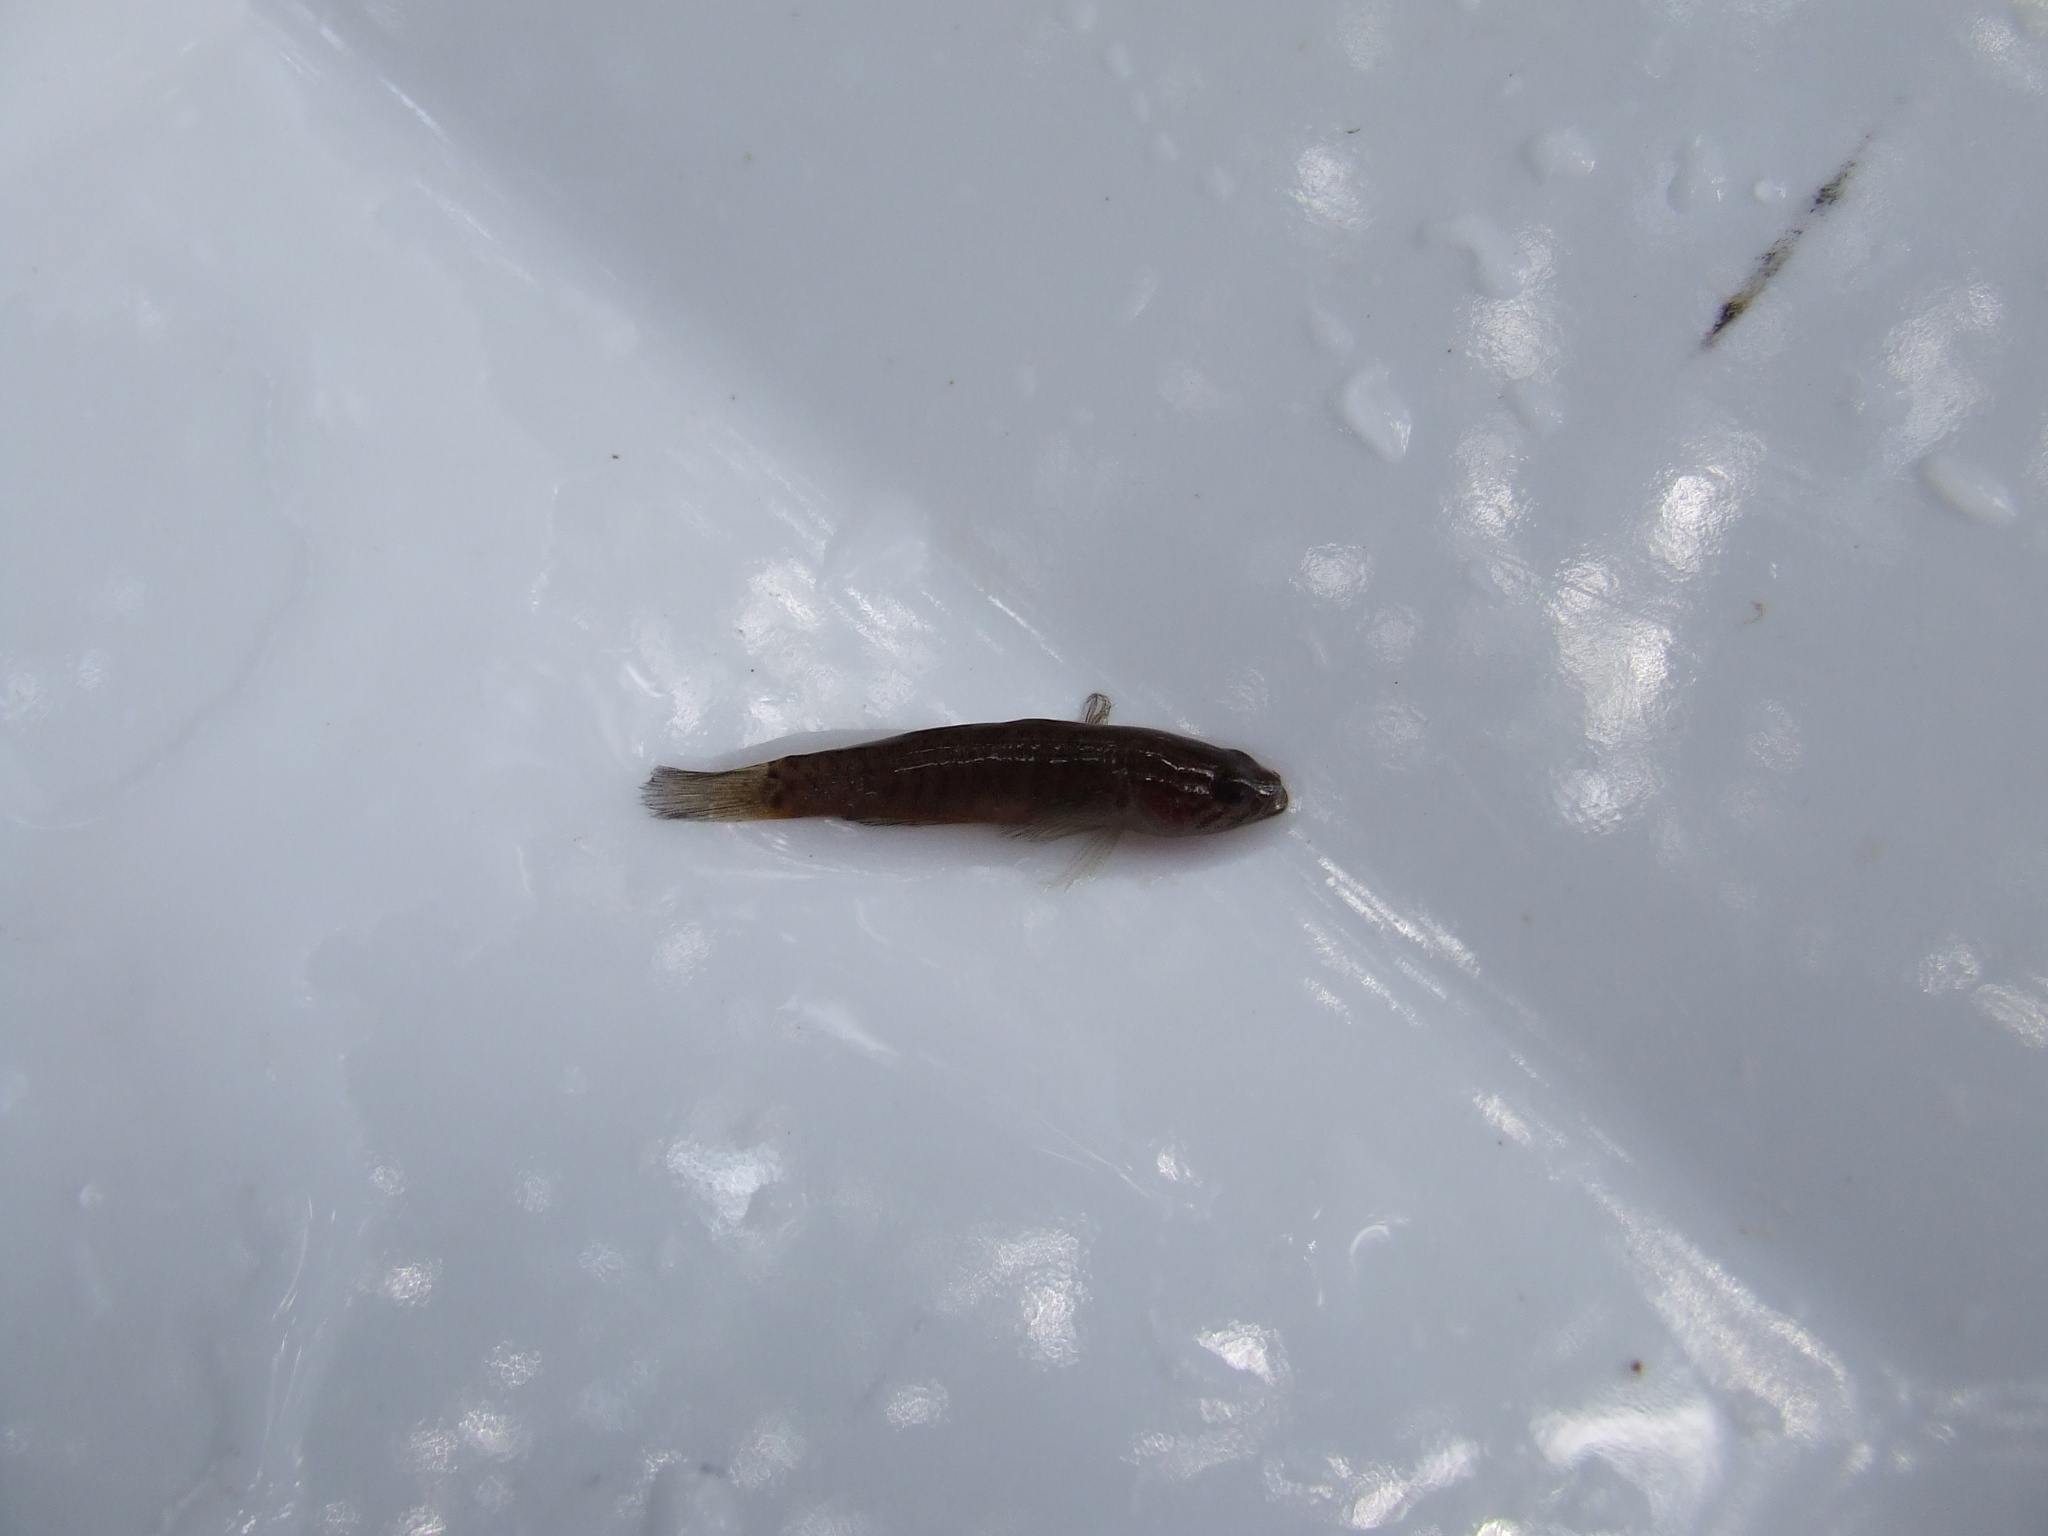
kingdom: Animalia
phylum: Chordata
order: Perciformes
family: Eleotridae
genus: Oxyeleotris
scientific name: Oxyeleotris nullipora
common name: Poreless gudgeon
